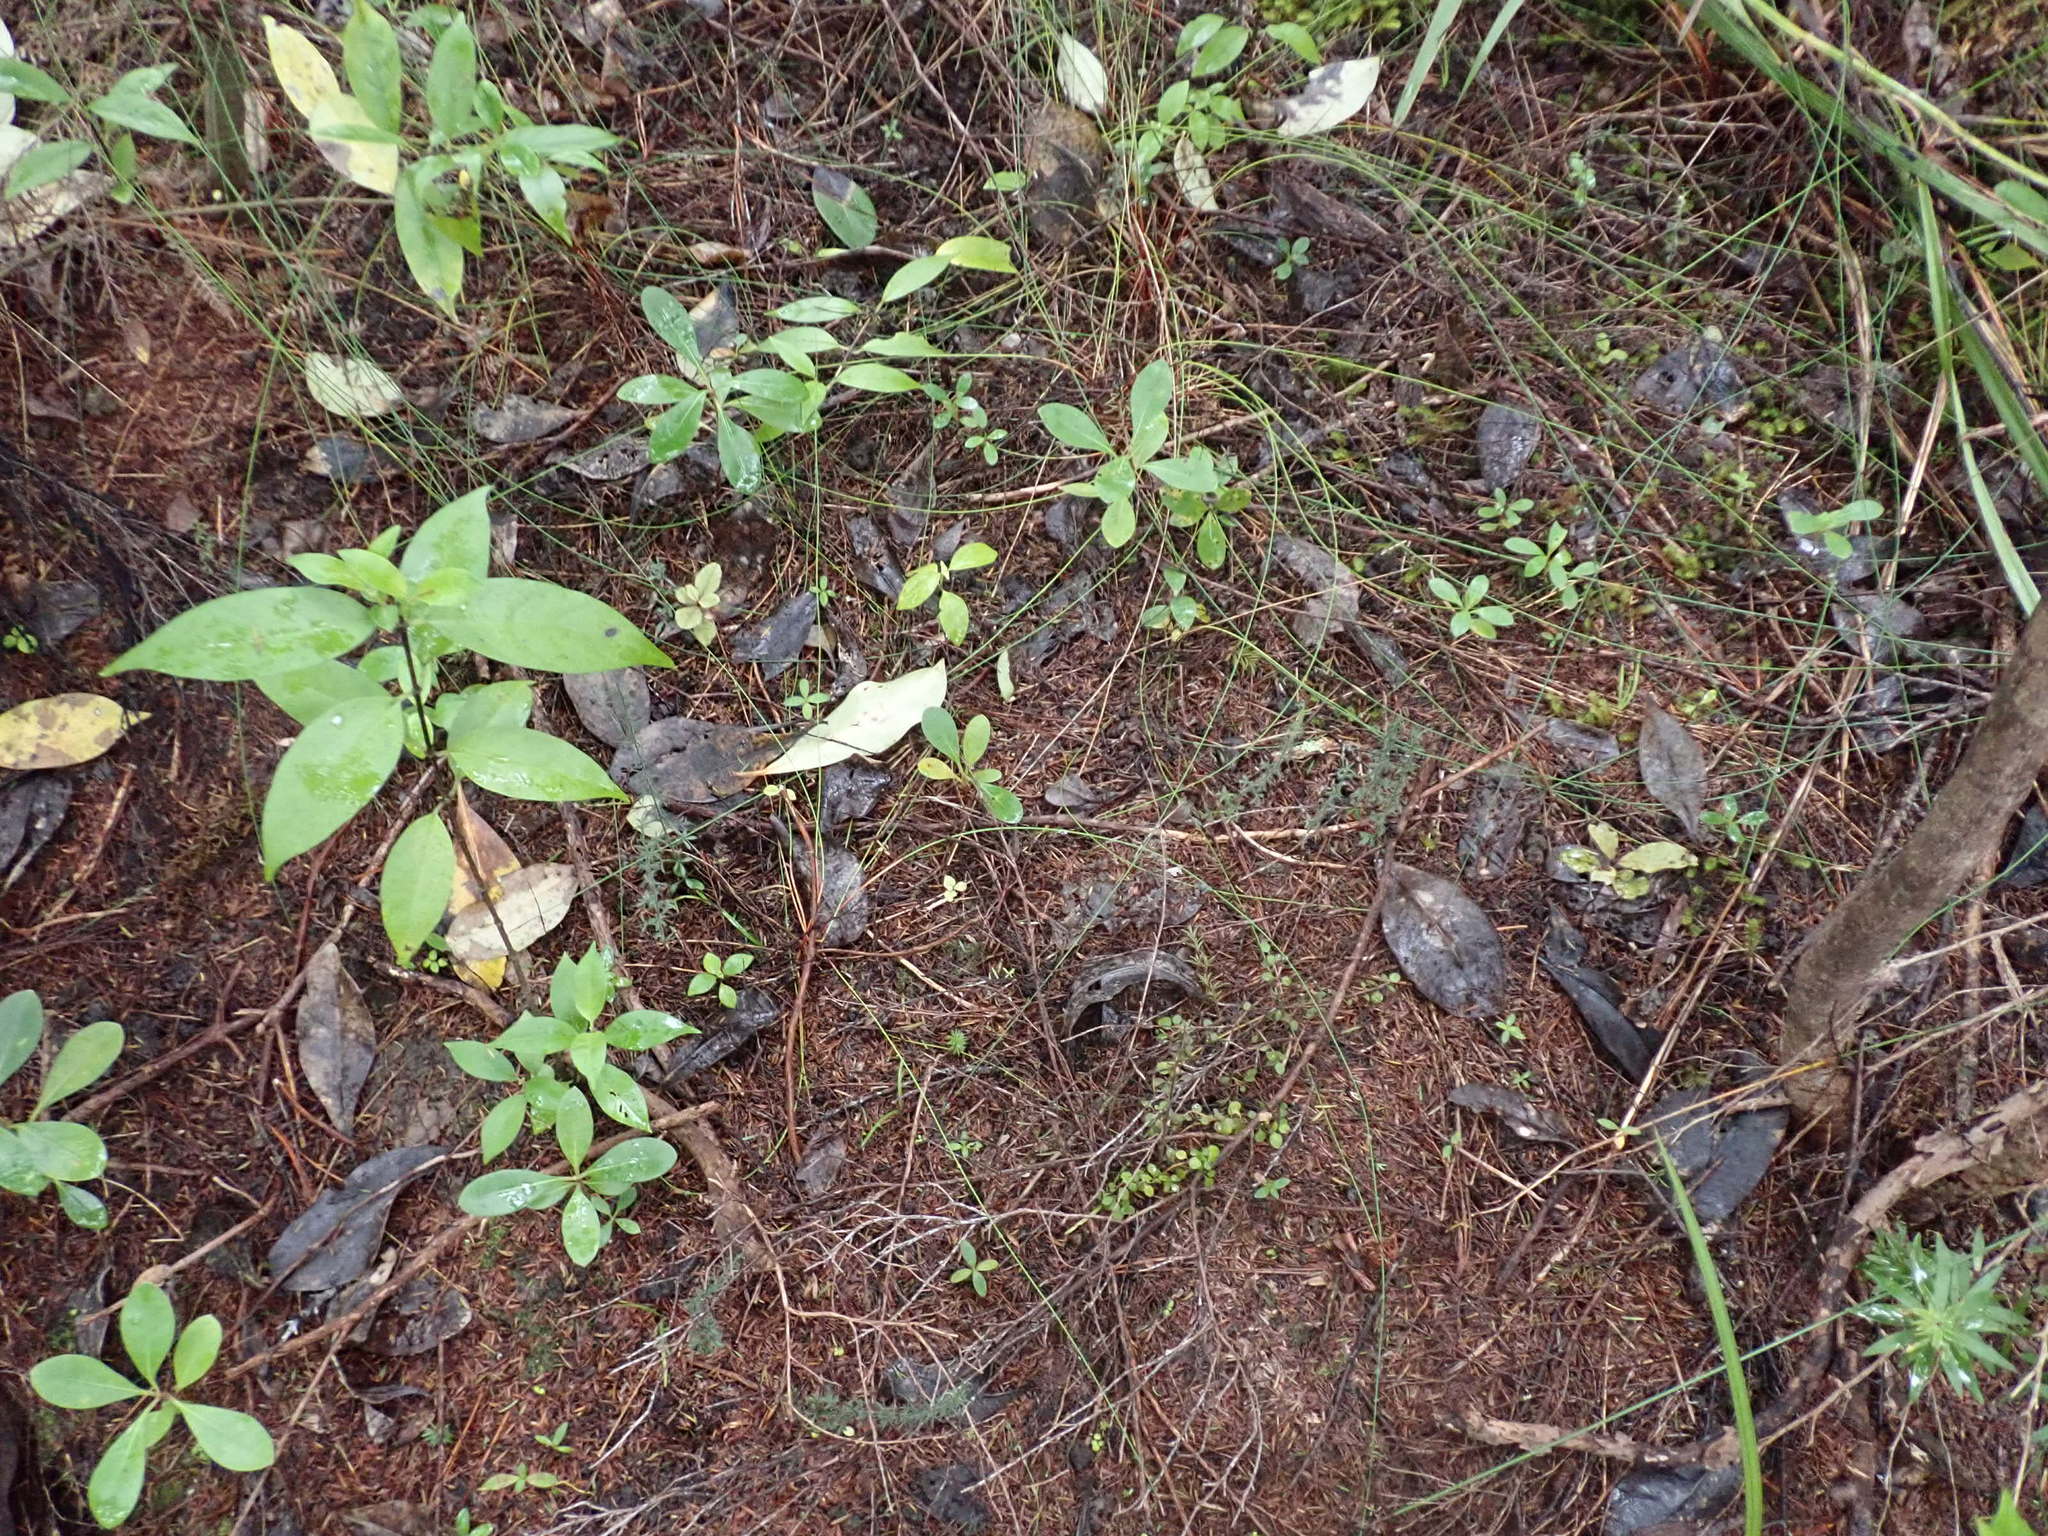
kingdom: Plantae
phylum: Tracheophyta
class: Magnoliopsida
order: Gentianales
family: Loganiaceae
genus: Geniostoma
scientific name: Geniostoma ligustrifolium
